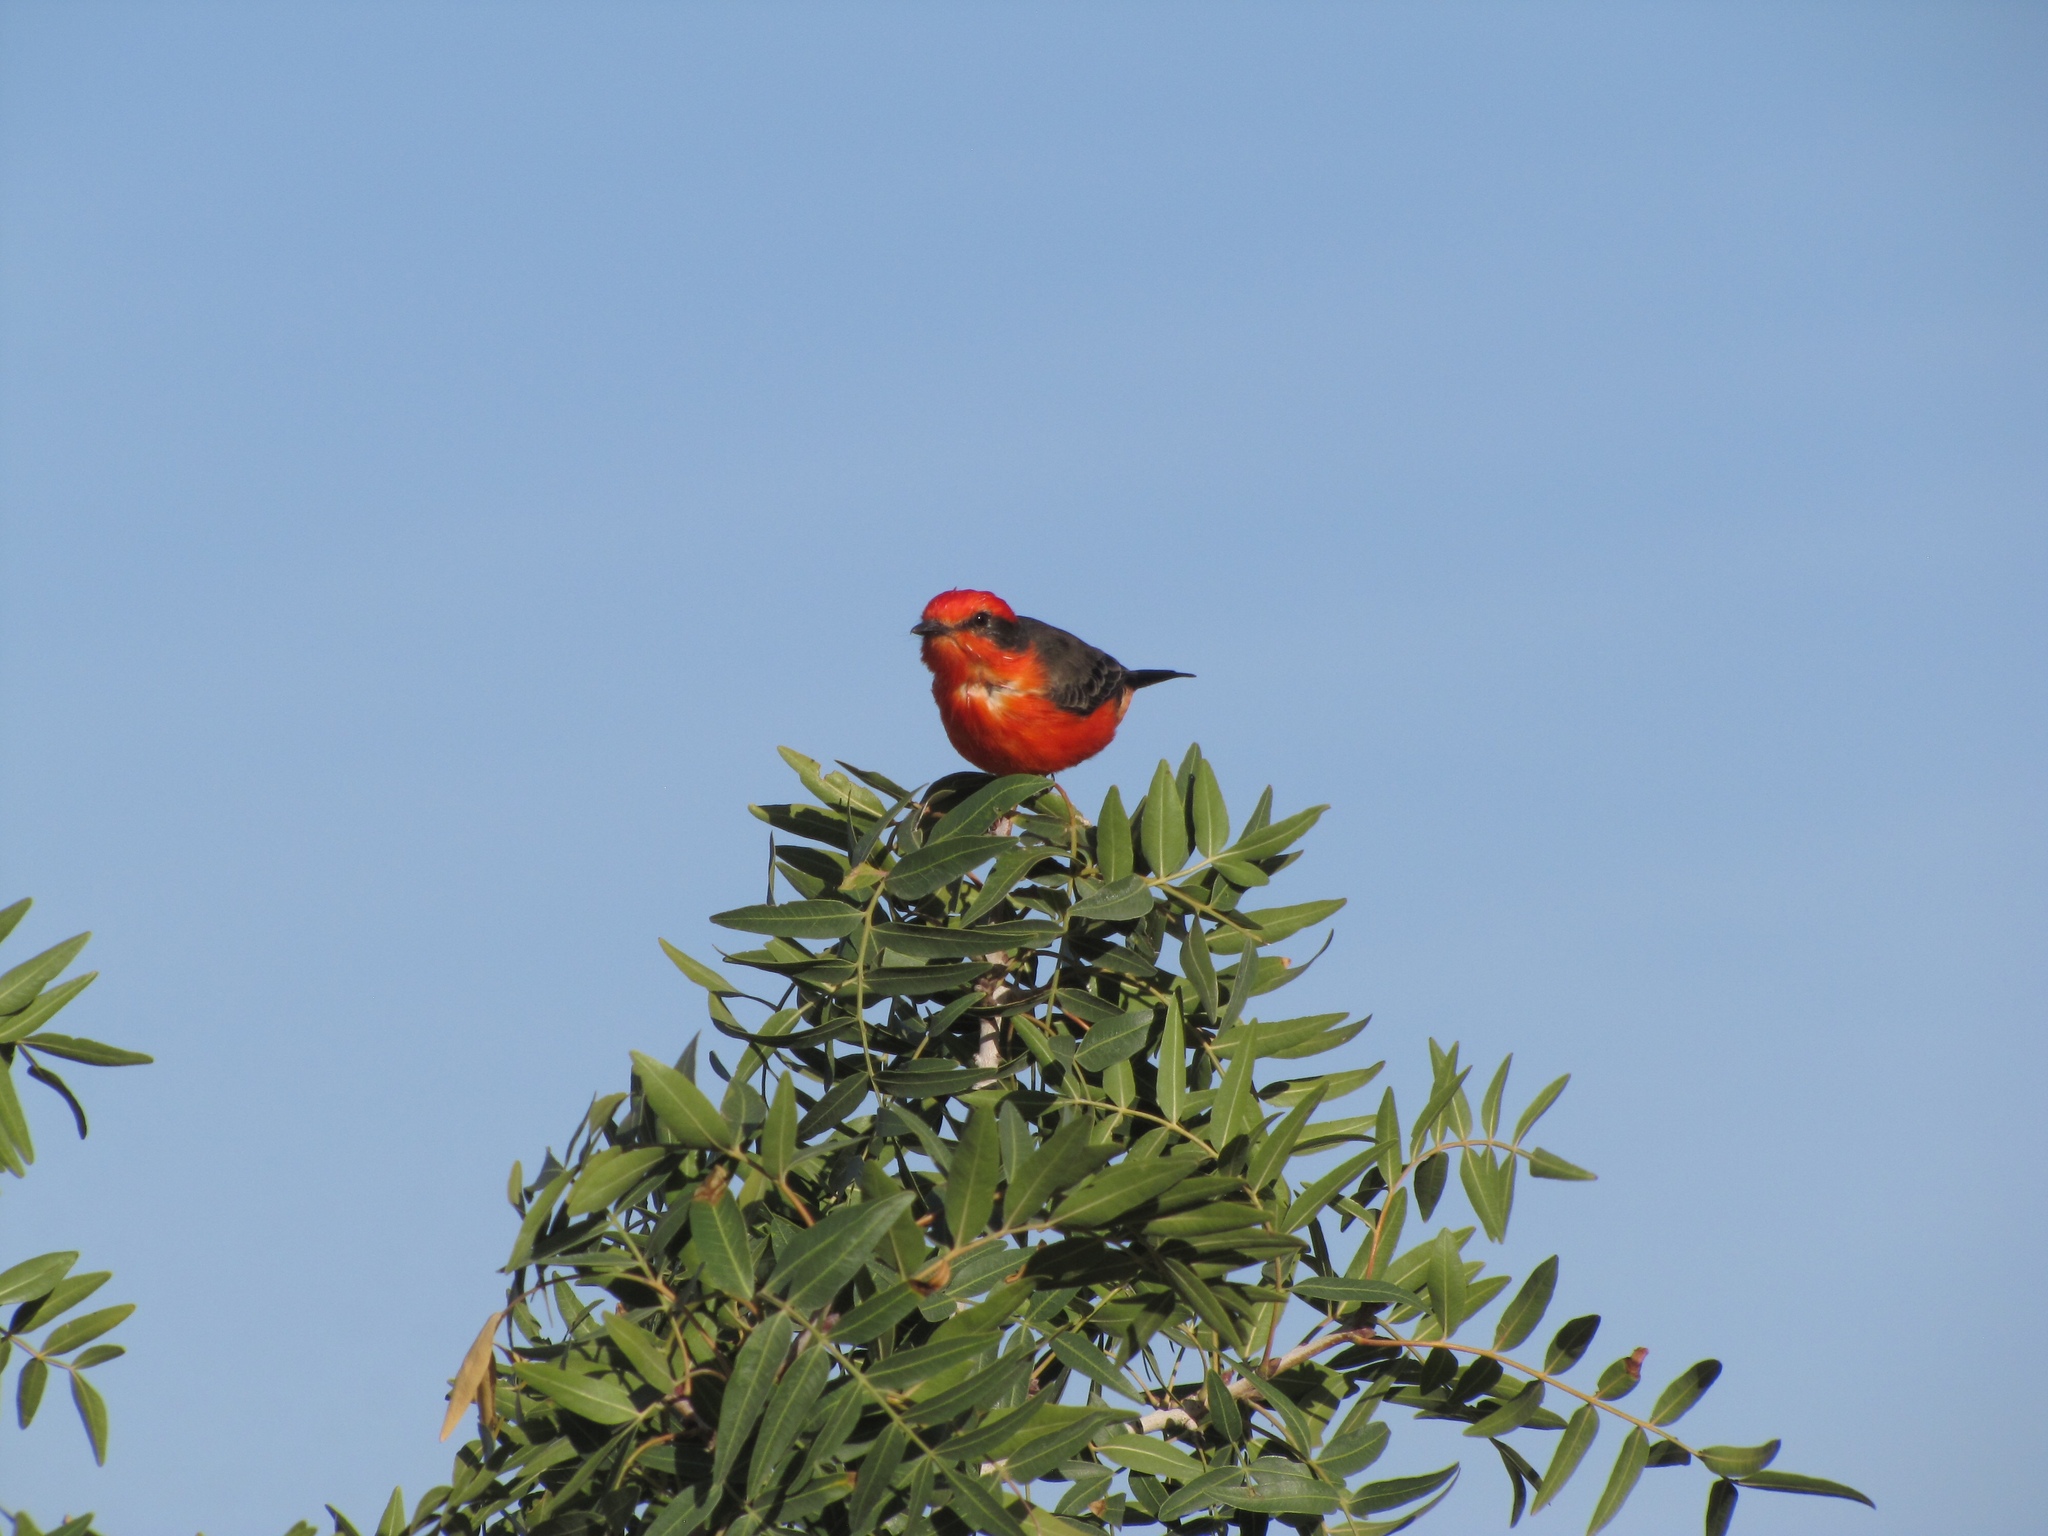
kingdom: Animalia
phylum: Chordata
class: Aves
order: Passeriformes
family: Tyrannidae
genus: Pyrocephalus
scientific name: Pyrocephalus rubinus
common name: Vermilion flycatcher
